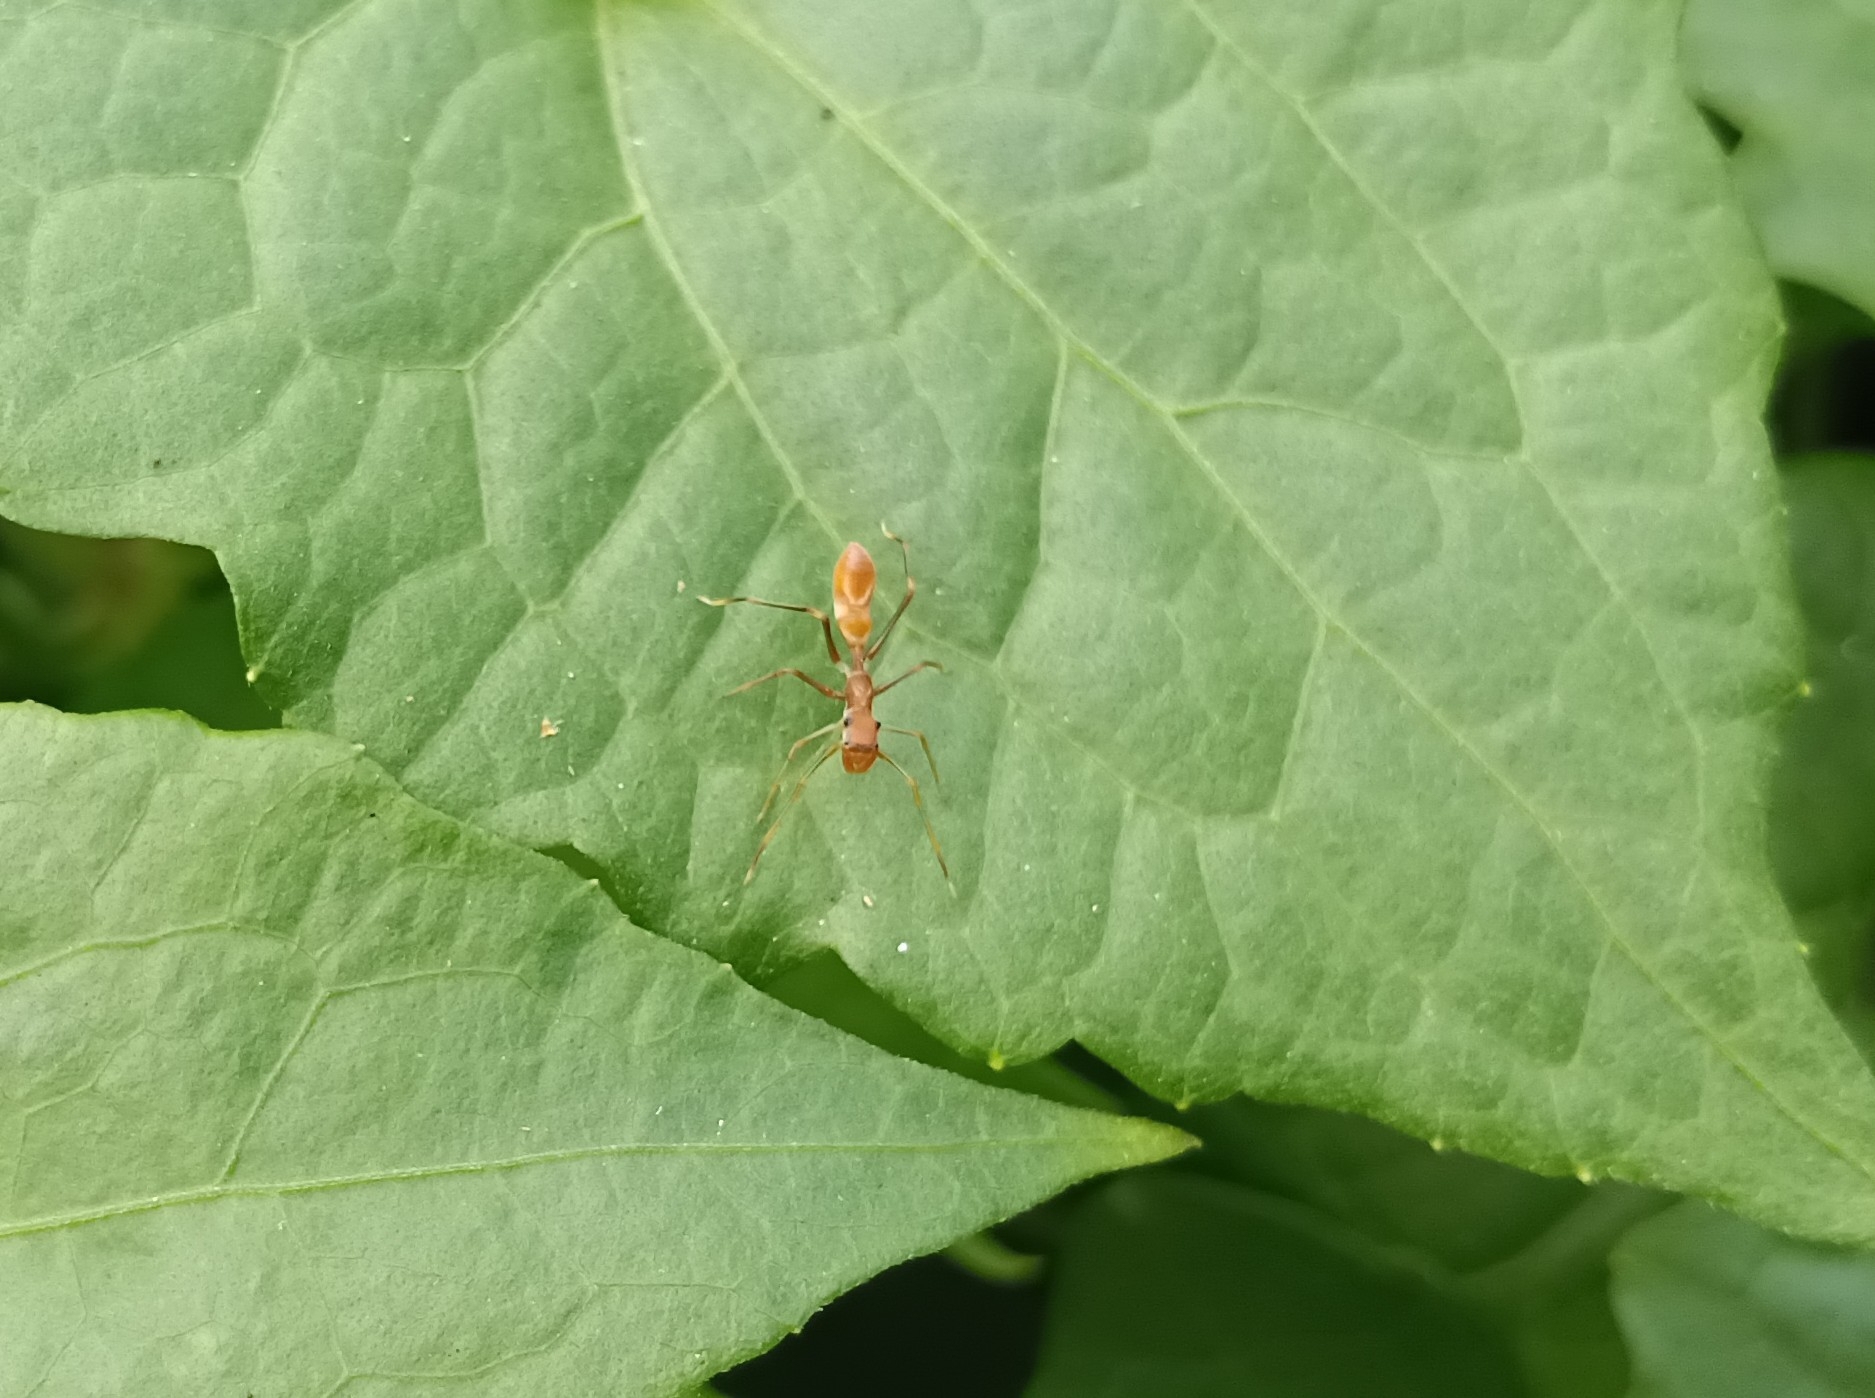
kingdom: Animalia
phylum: Arthropoda
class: Arachnida
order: Araneae
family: Salticidae
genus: Myrmaplata
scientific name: Myrmaplata plataleoides
